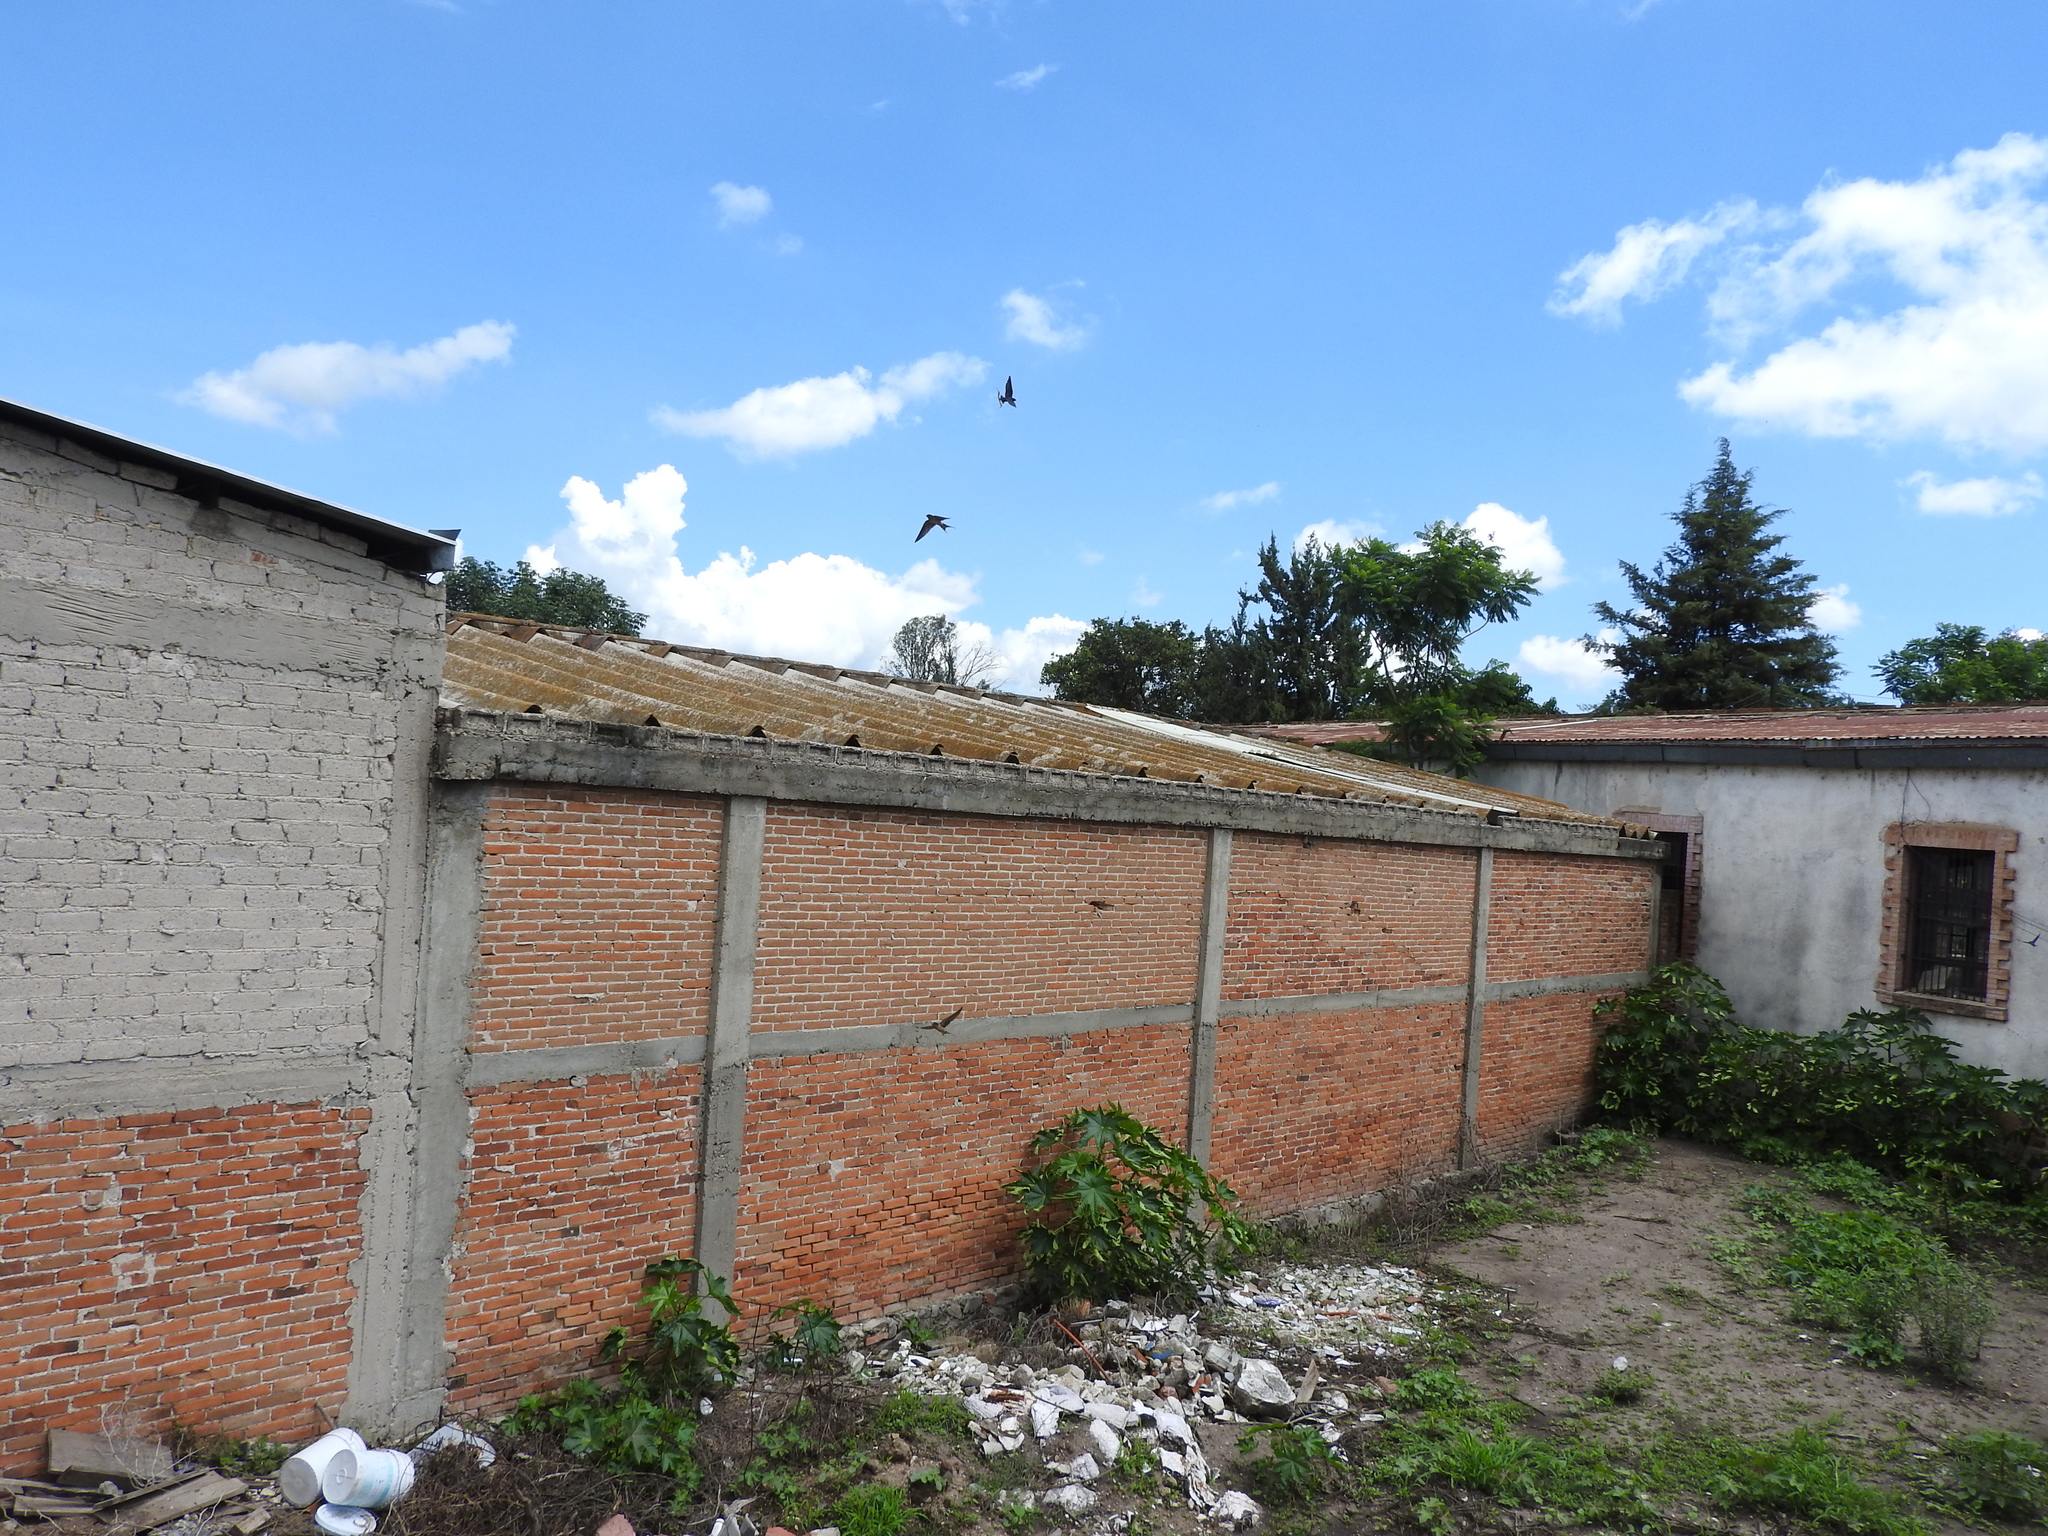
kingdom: Animalia
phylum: Chordata
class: Aves
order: Passeriformes
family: Hirundinidae
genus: Hirundo
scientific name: Hirundo rustica
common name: Barn swallow
